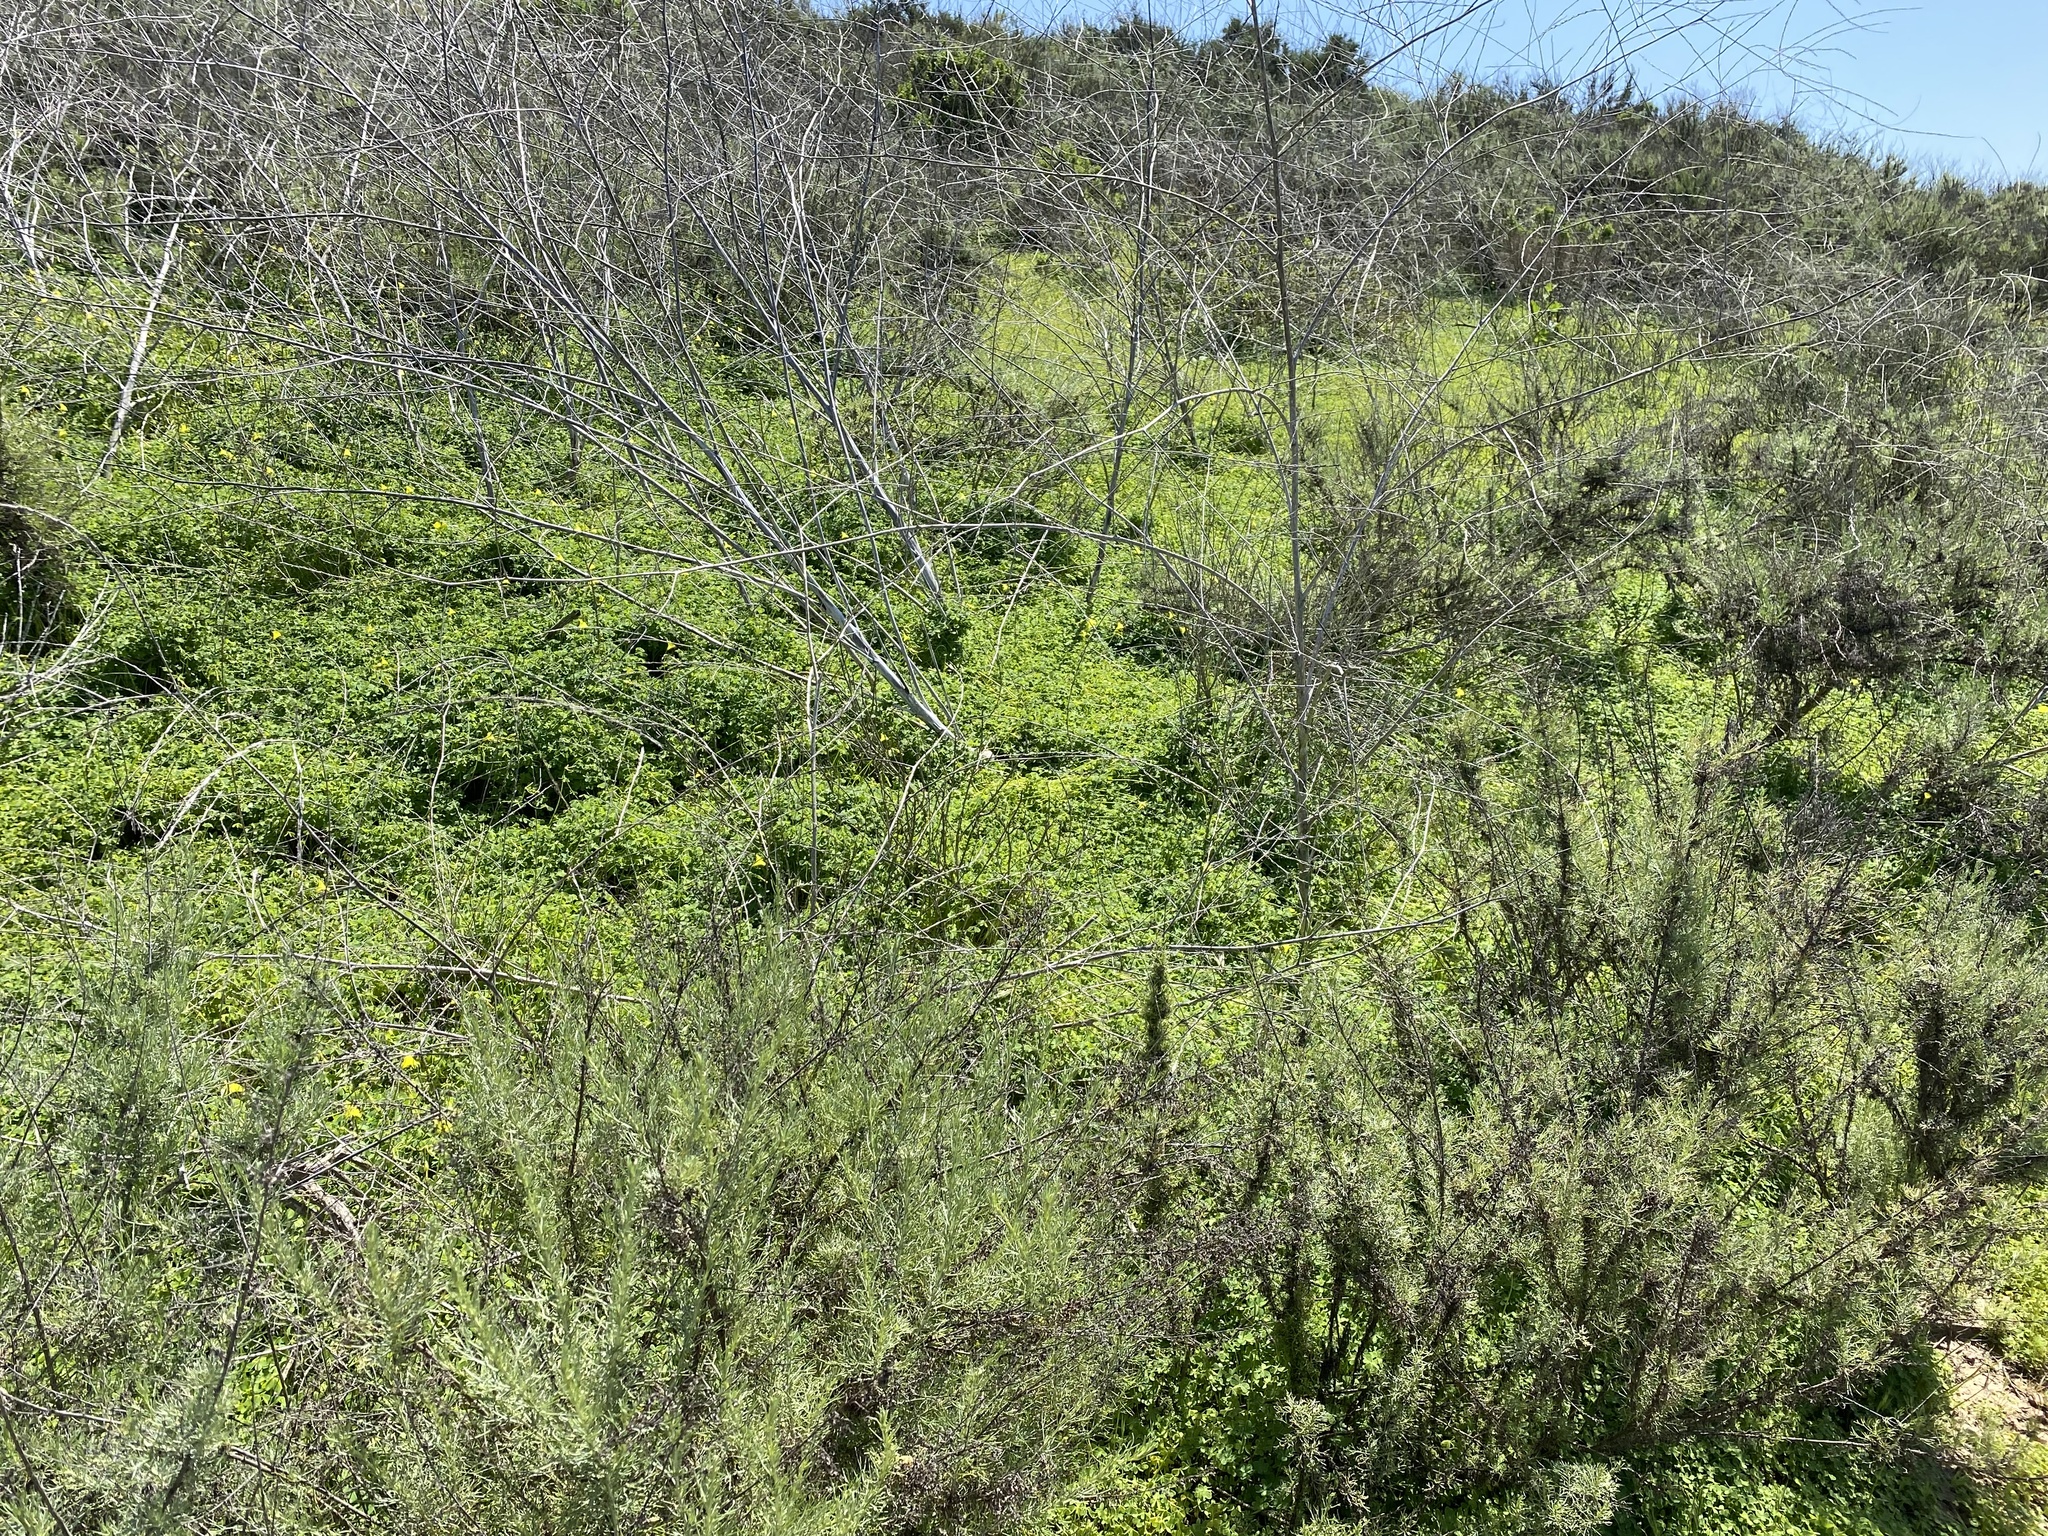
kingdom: Plantae
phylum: Tracheophyta
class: Magnoliopsida
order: Oxalidales
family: Oxalidaceae
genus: Oxalis
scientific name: Oxalis pes-caprae
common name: Bermuda-buttercup
